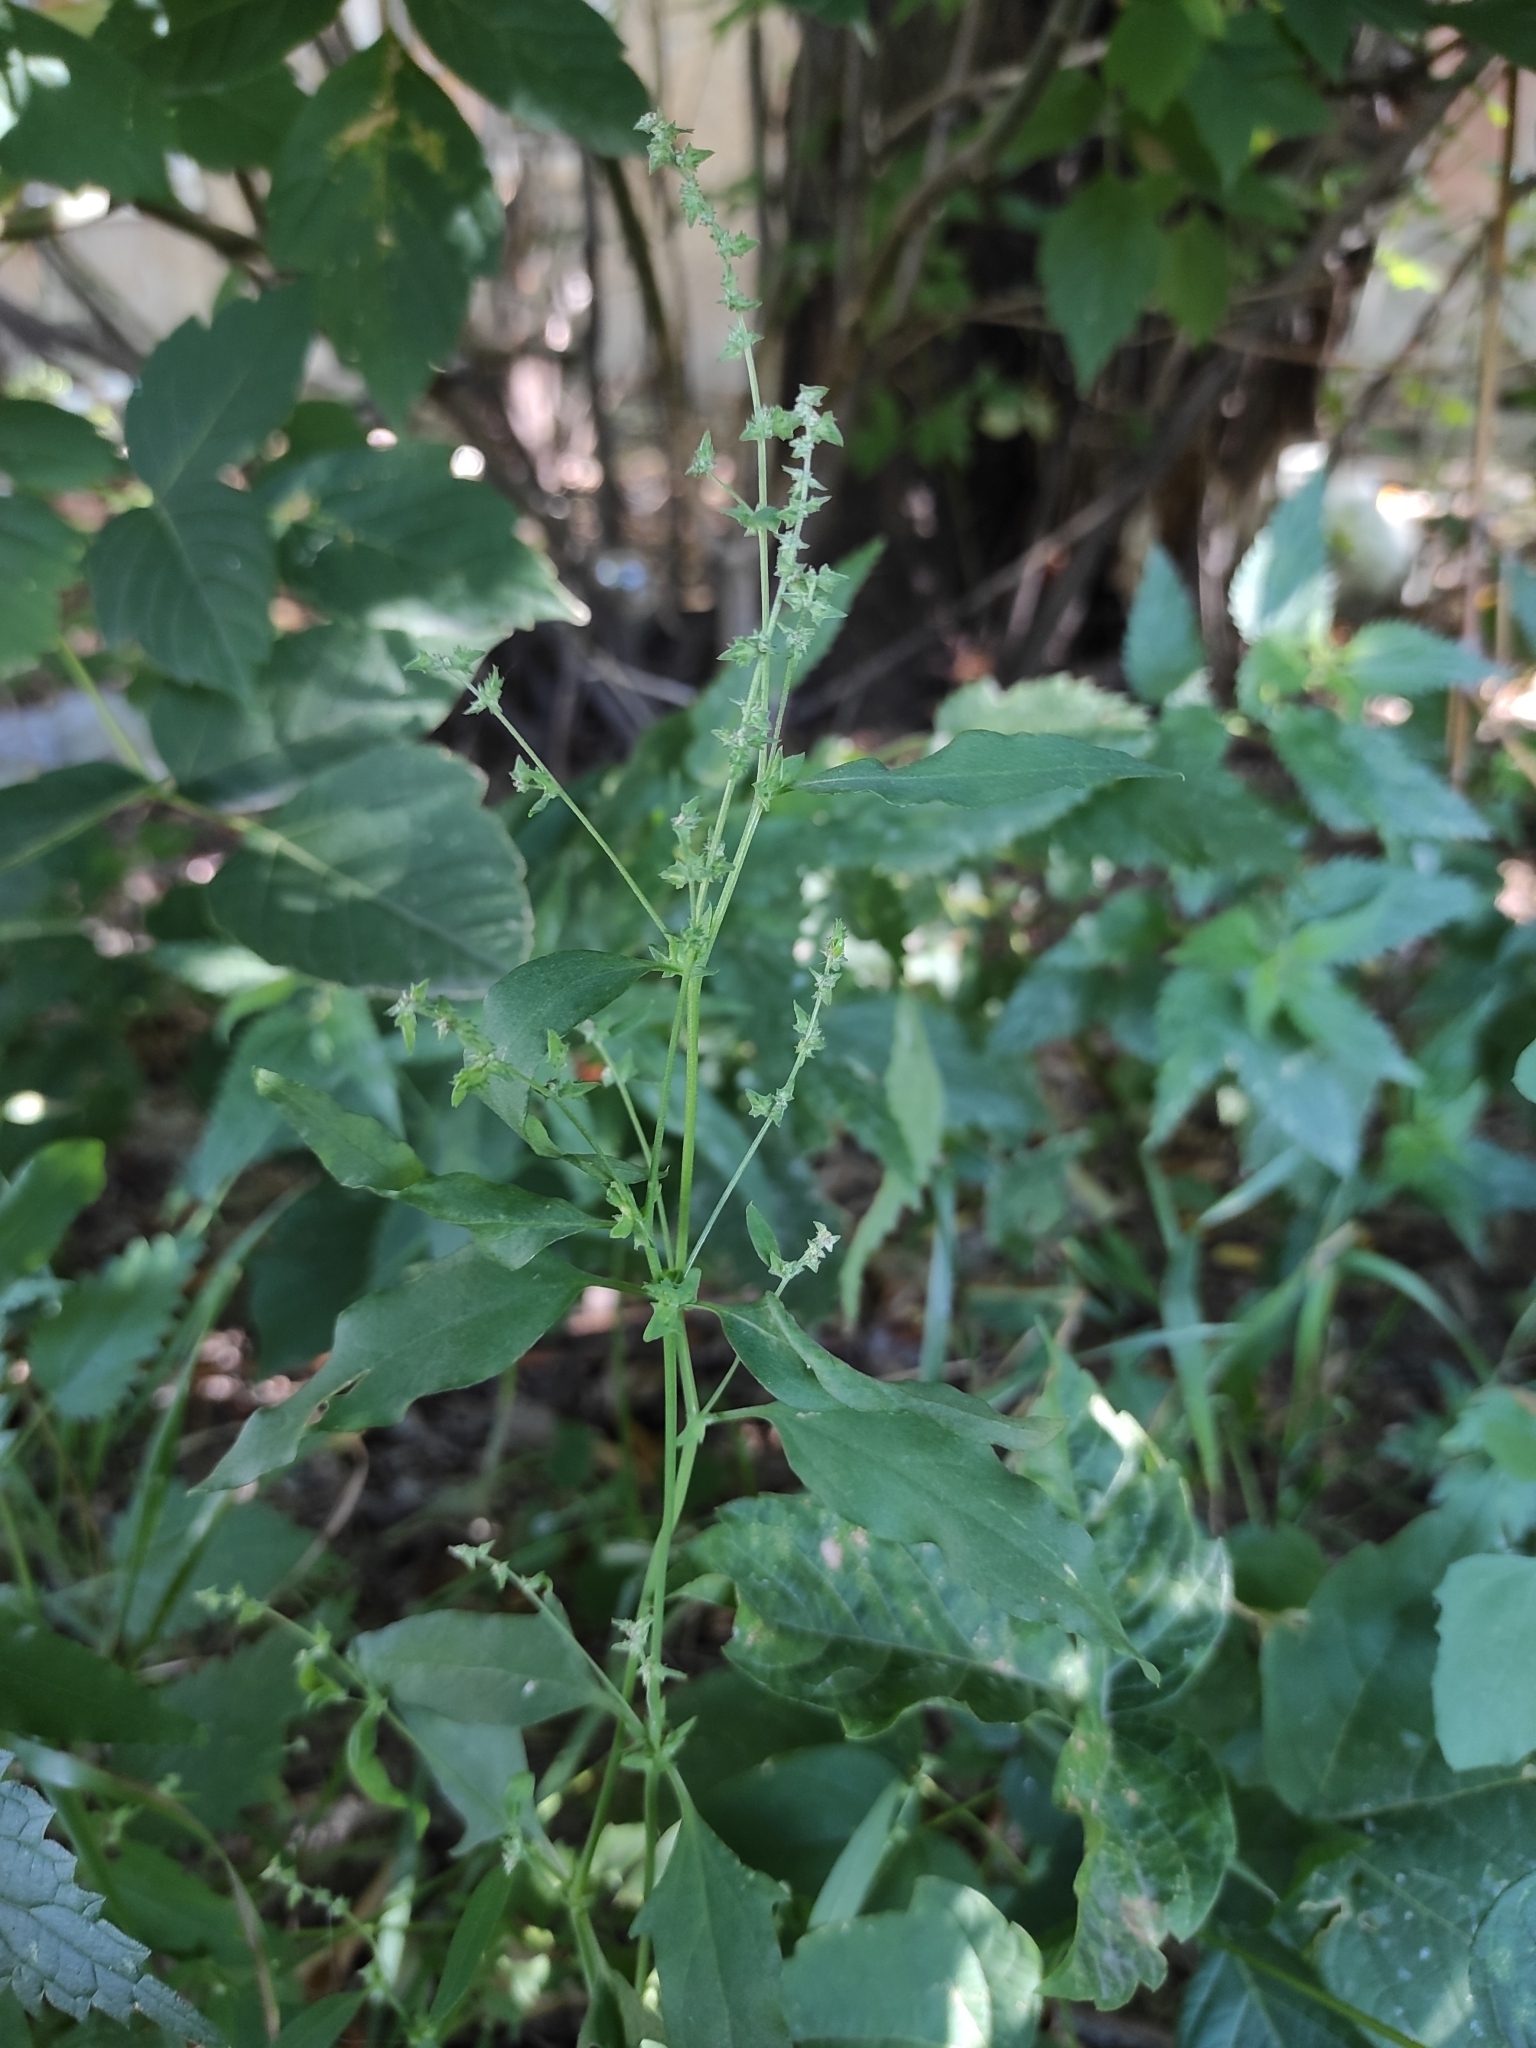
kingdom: Plantae
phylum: Tracheophyta
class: Magnoliopsida
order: Caryophyllales
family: Amaranthaceae
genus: Atriplex
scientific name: Atriplex patula
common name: Common orache
